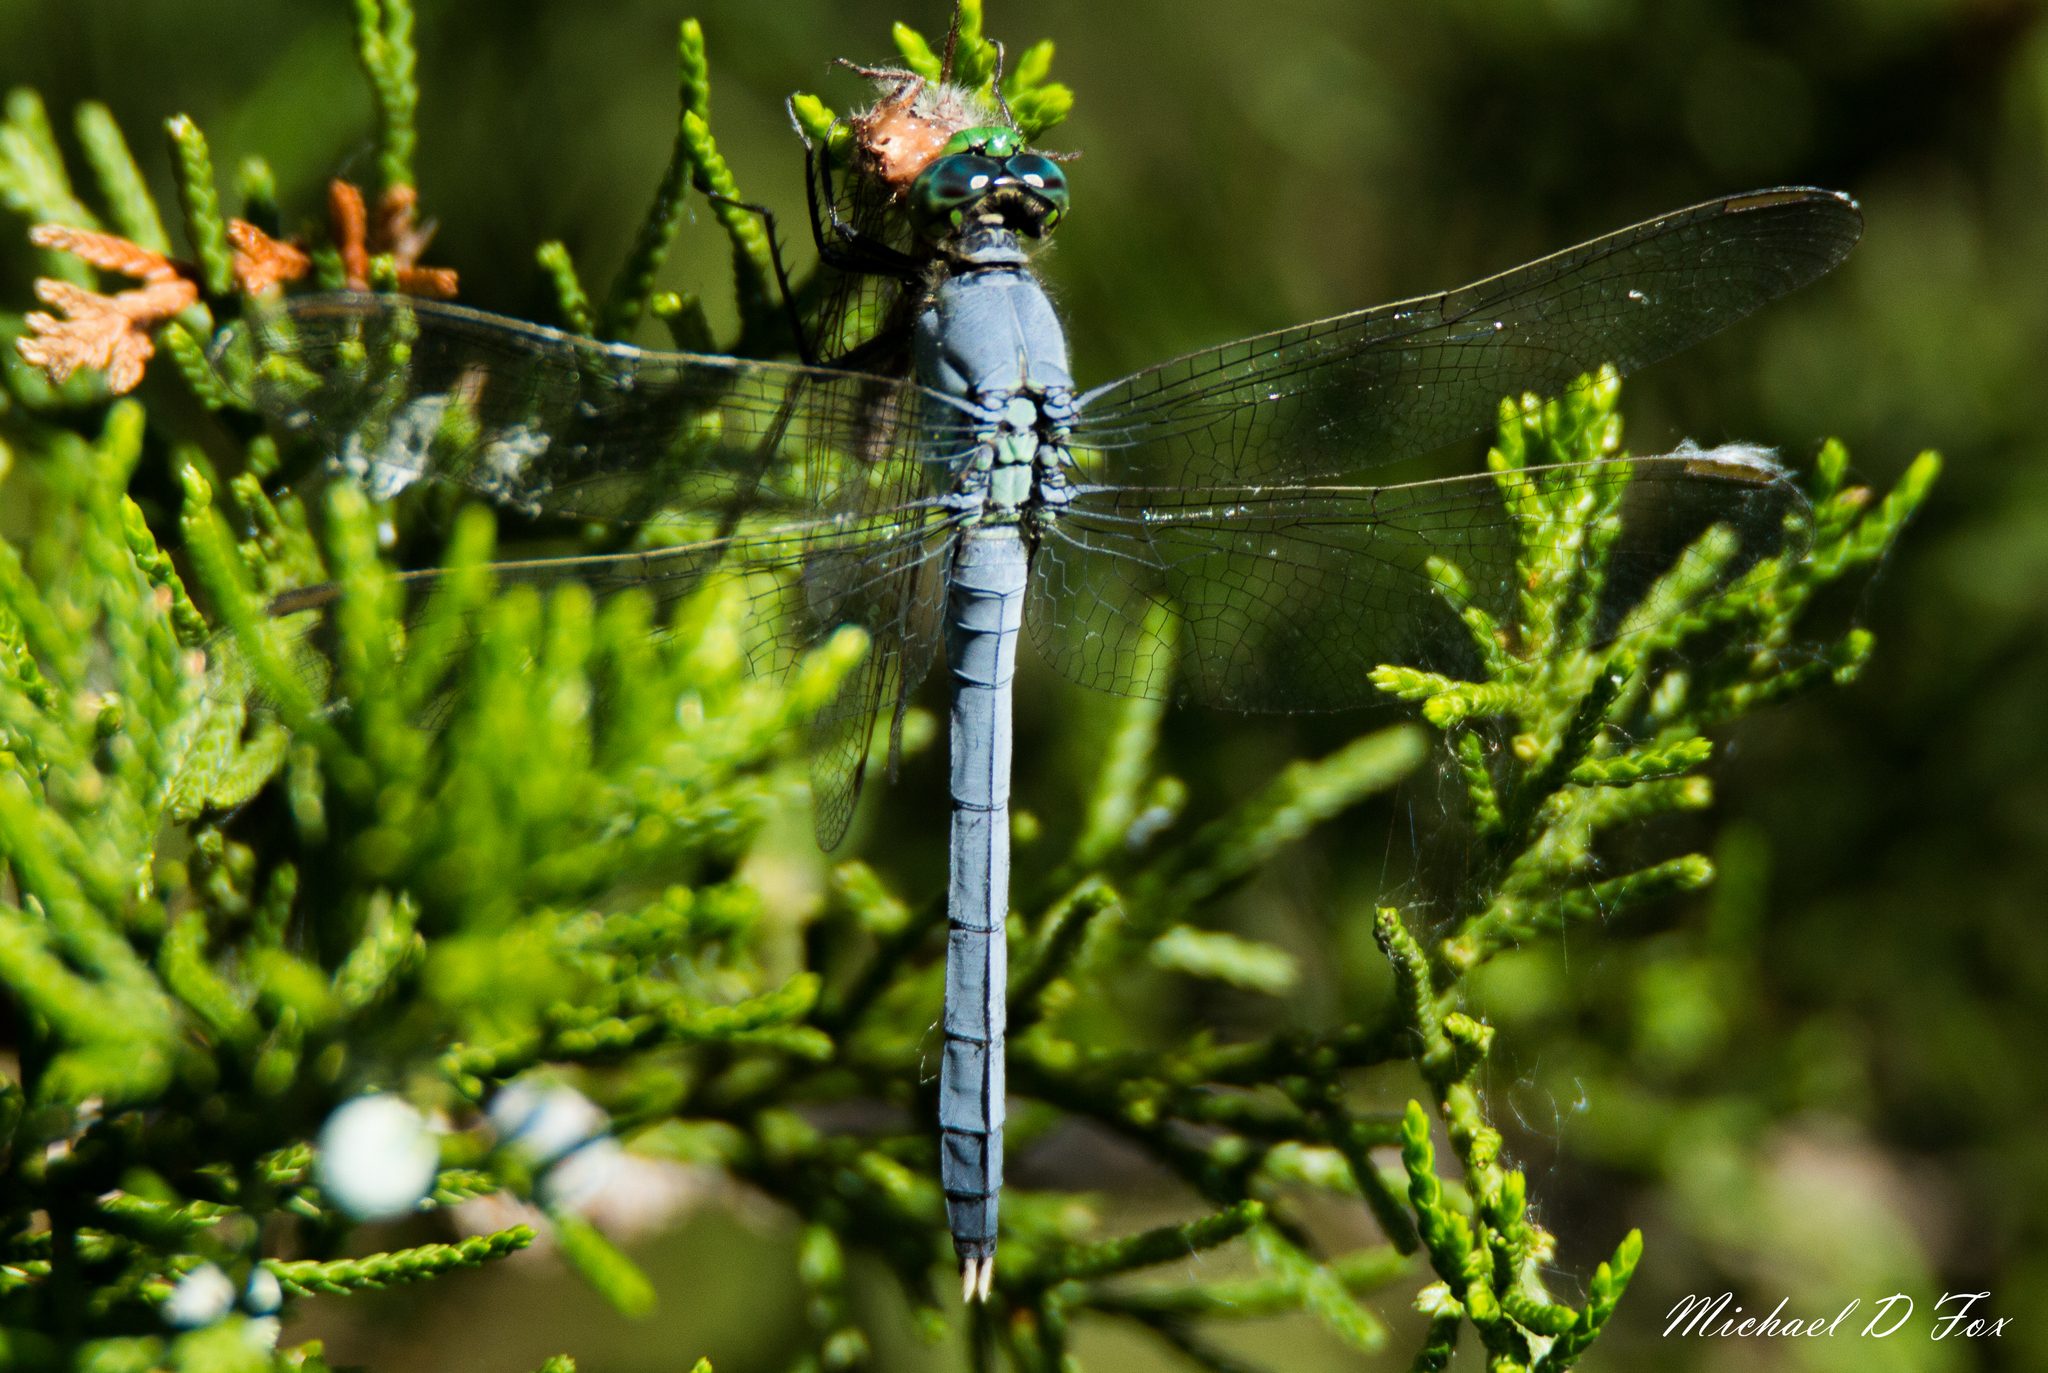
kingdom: Animalia
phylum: Arthropoda
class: Insecta
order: Odonata
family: Libellulidae
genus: Erythemis
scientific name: Erythemis simplicicollis
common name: Eastern pondhawk
